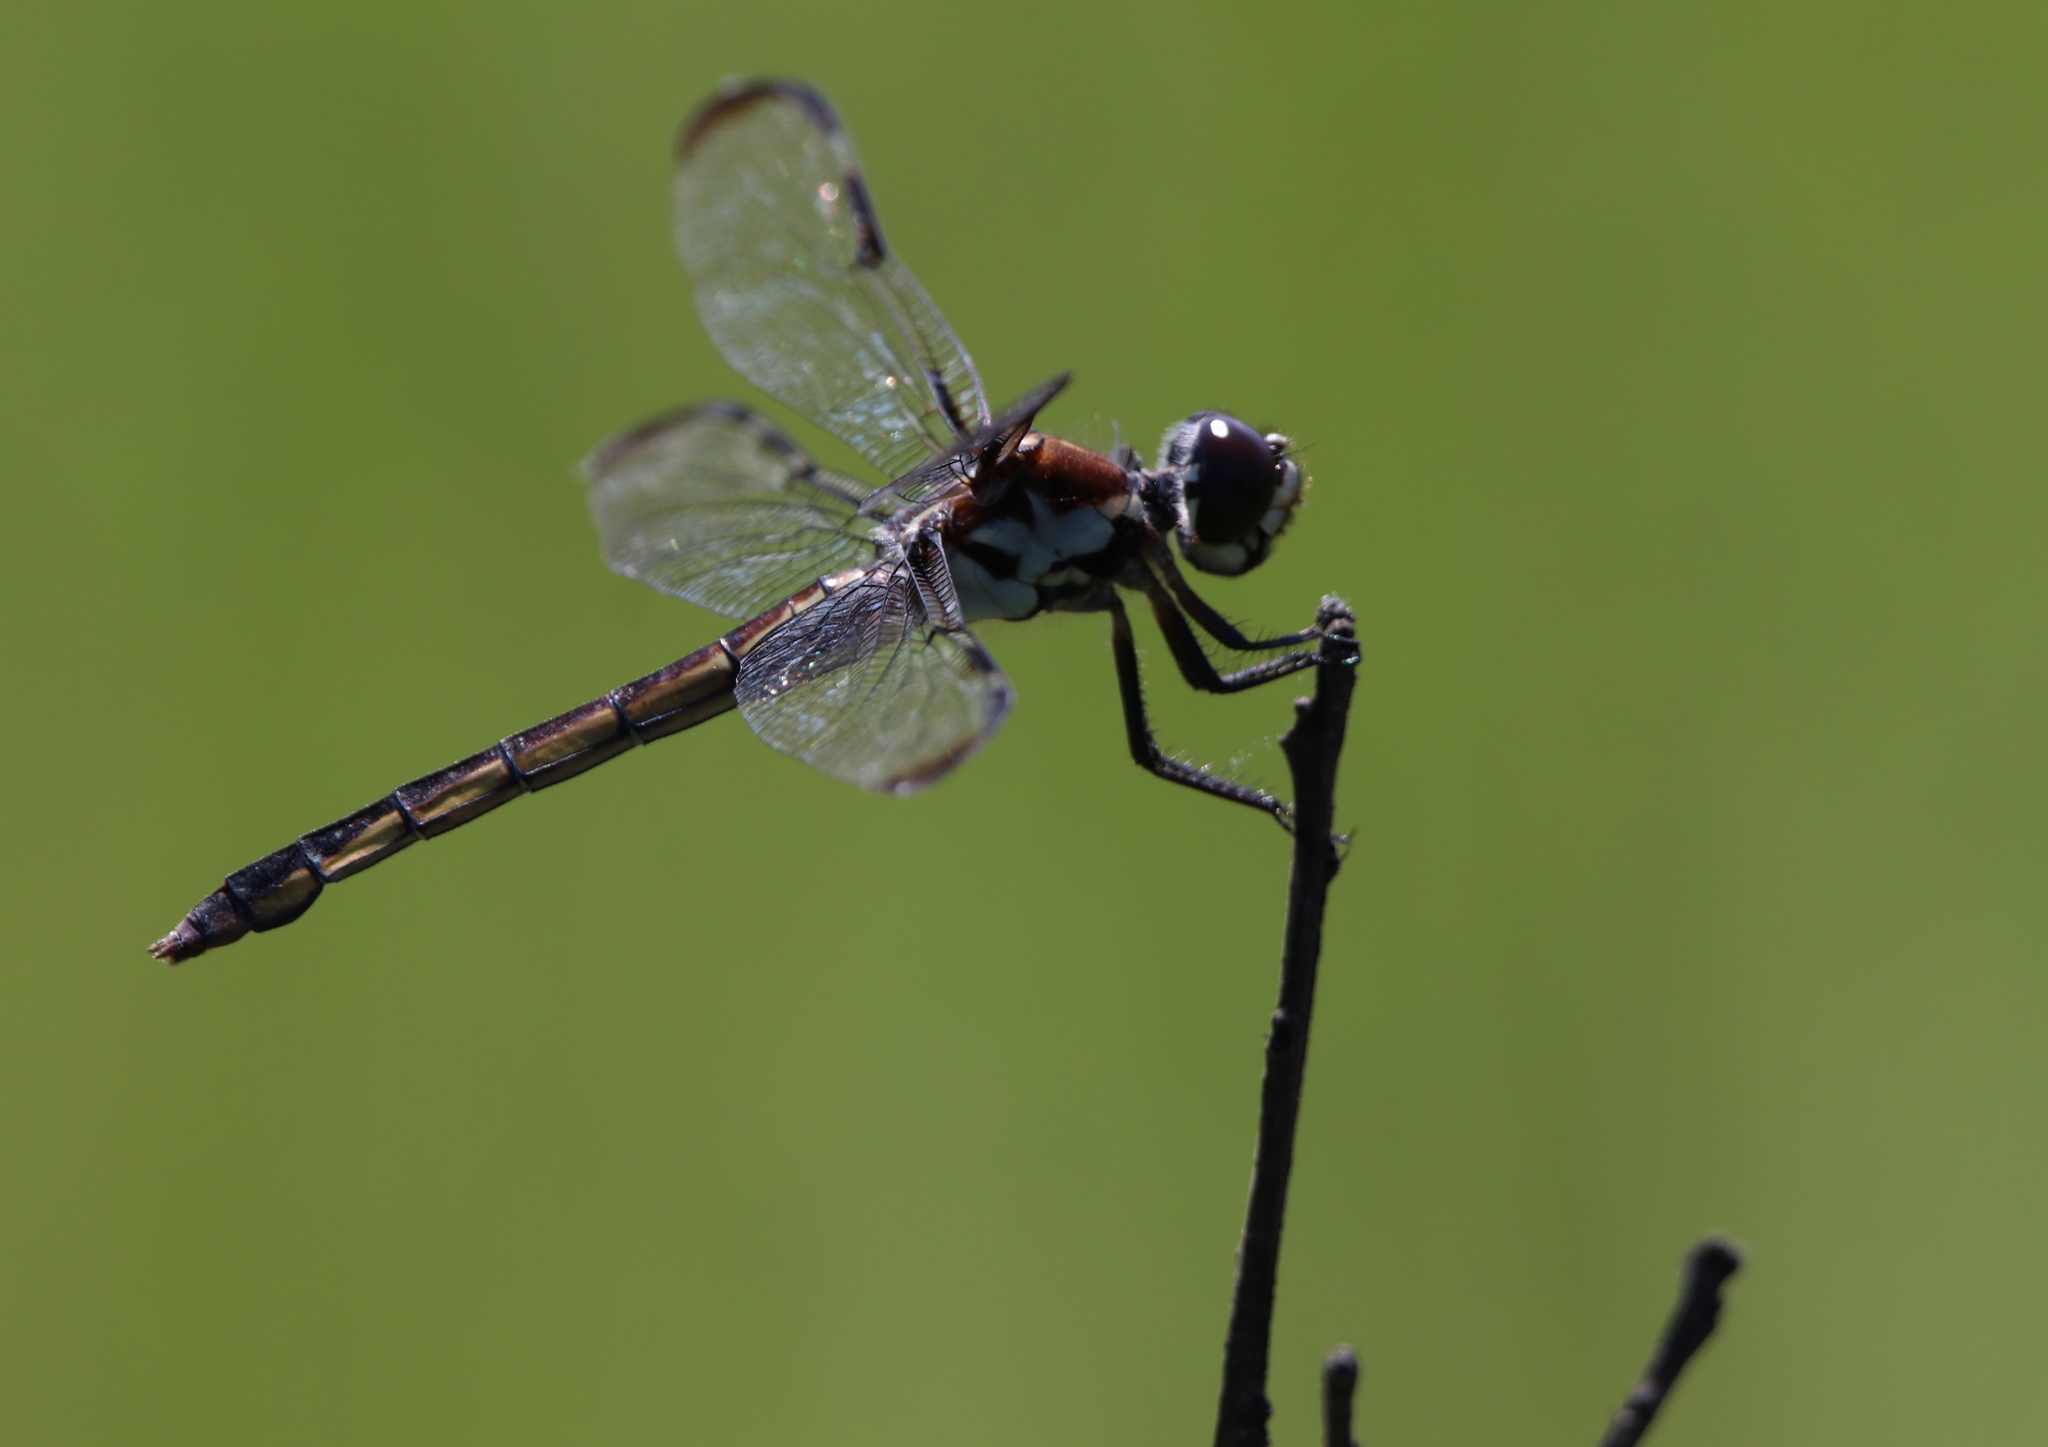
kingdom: Animalia
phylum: Arthropoda
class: Insecta
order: Odonata
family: Libellulidae
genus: Libellula
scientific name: Libellula axilena
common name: Bar-winged skimmer
